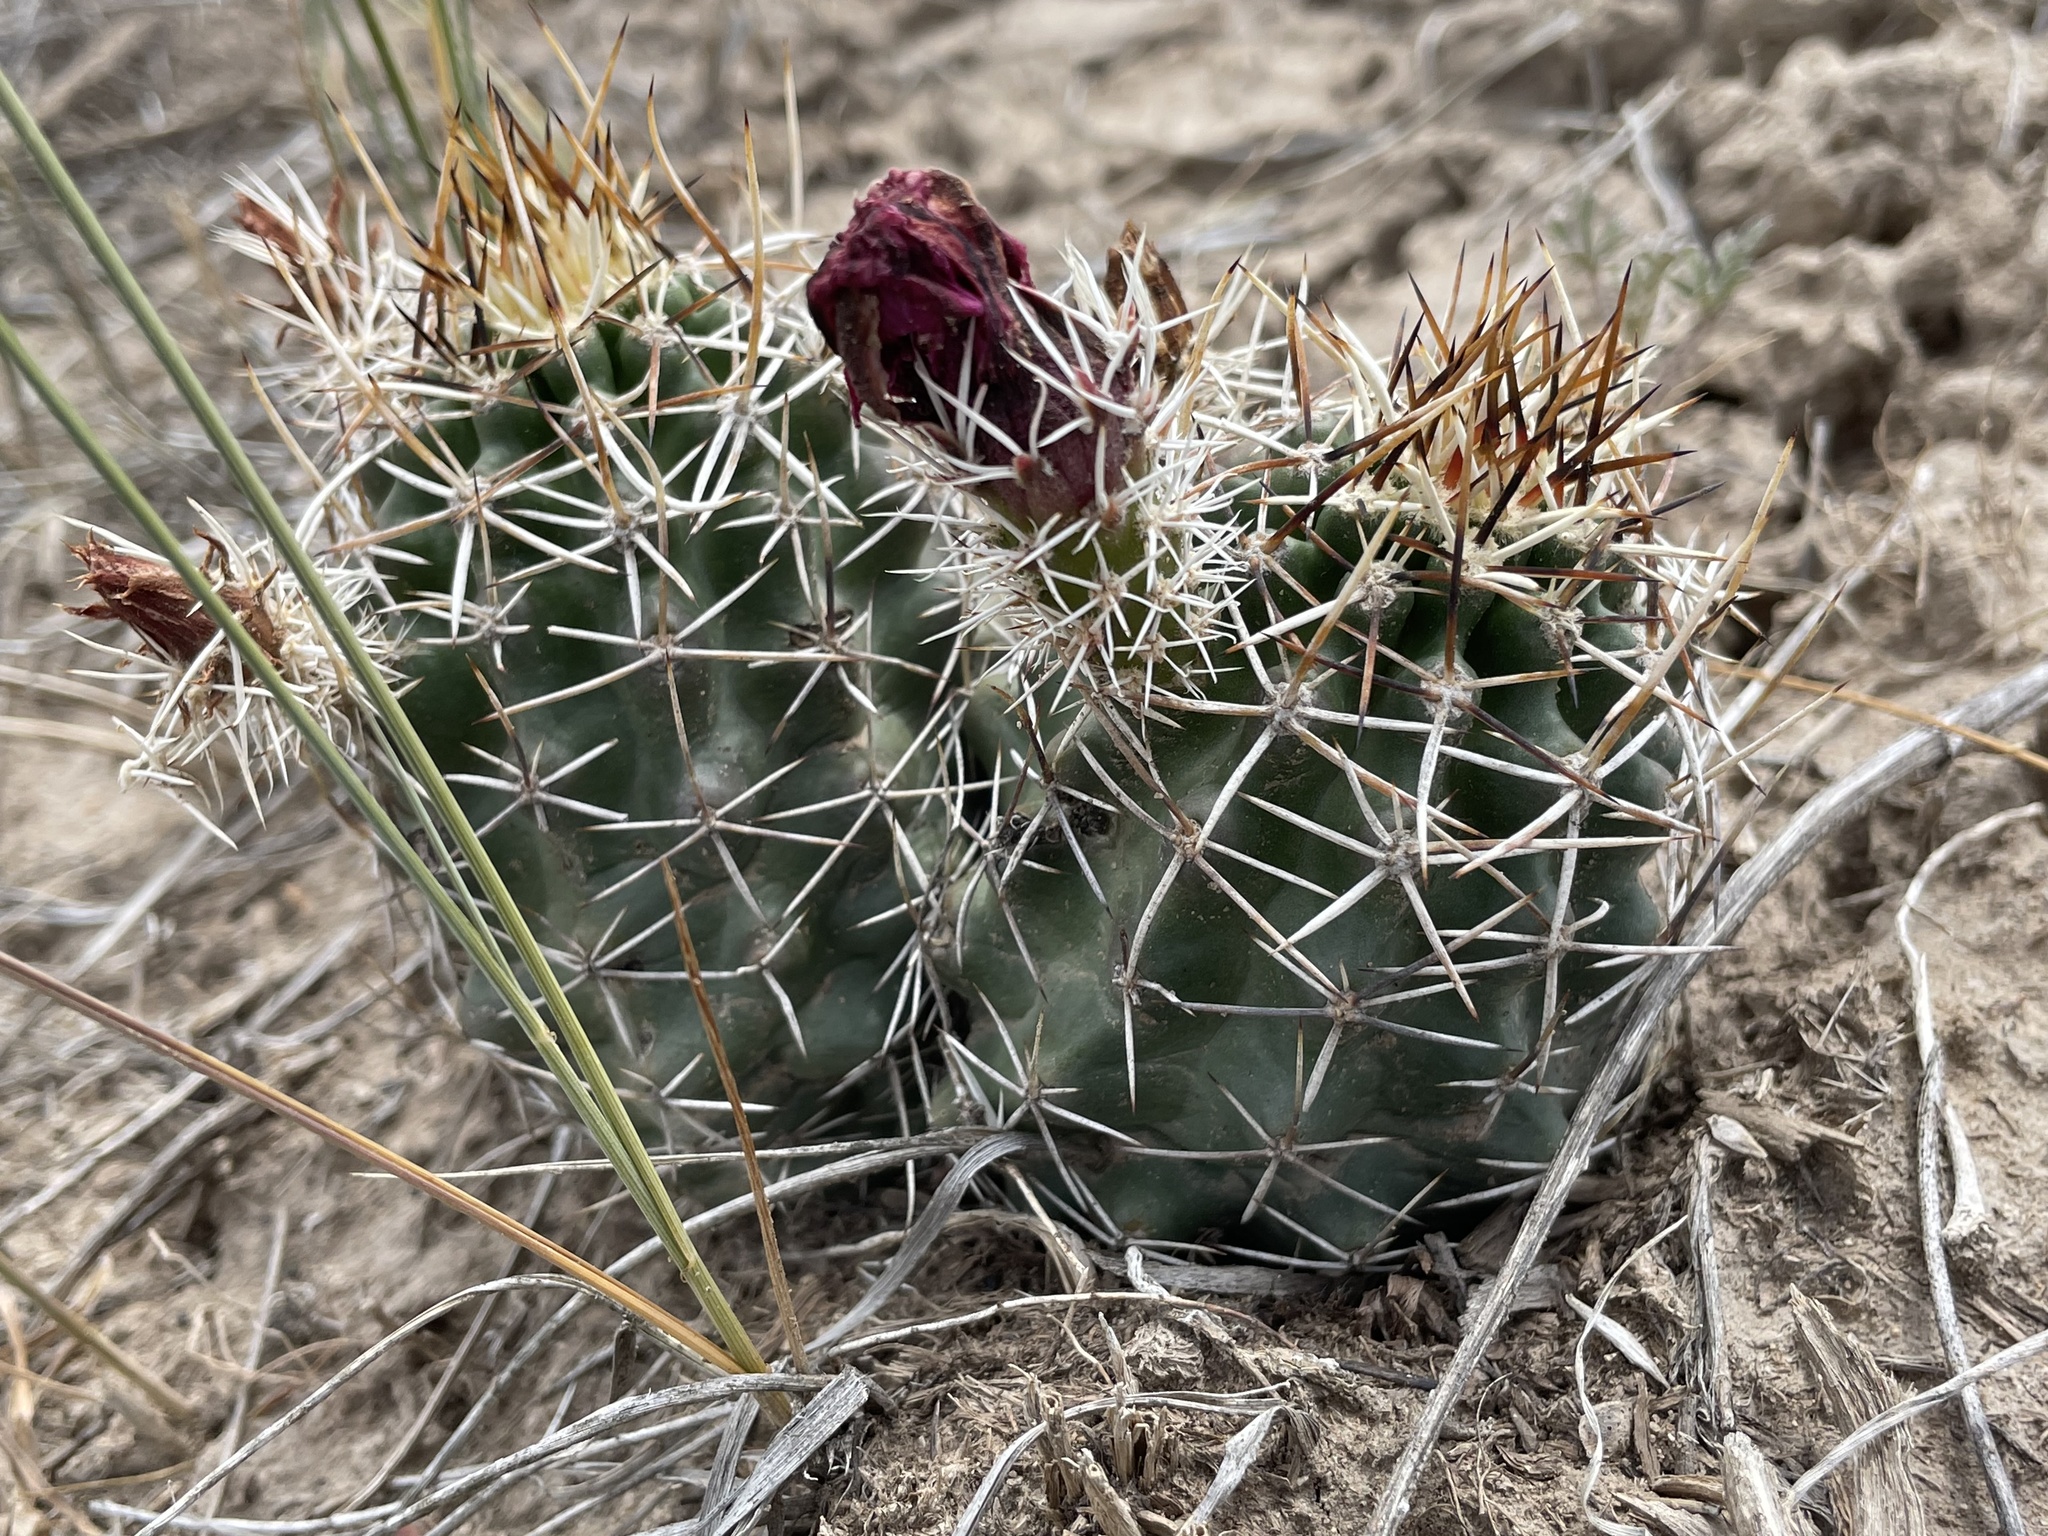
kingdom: Plantae
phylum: Tracheophyta
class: Magnoliopsida
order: Caryophyllales
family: Cactaceae
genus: Echinocereus
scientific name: Echinocereus fendleri
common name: Fendler's hedgehog cactus
